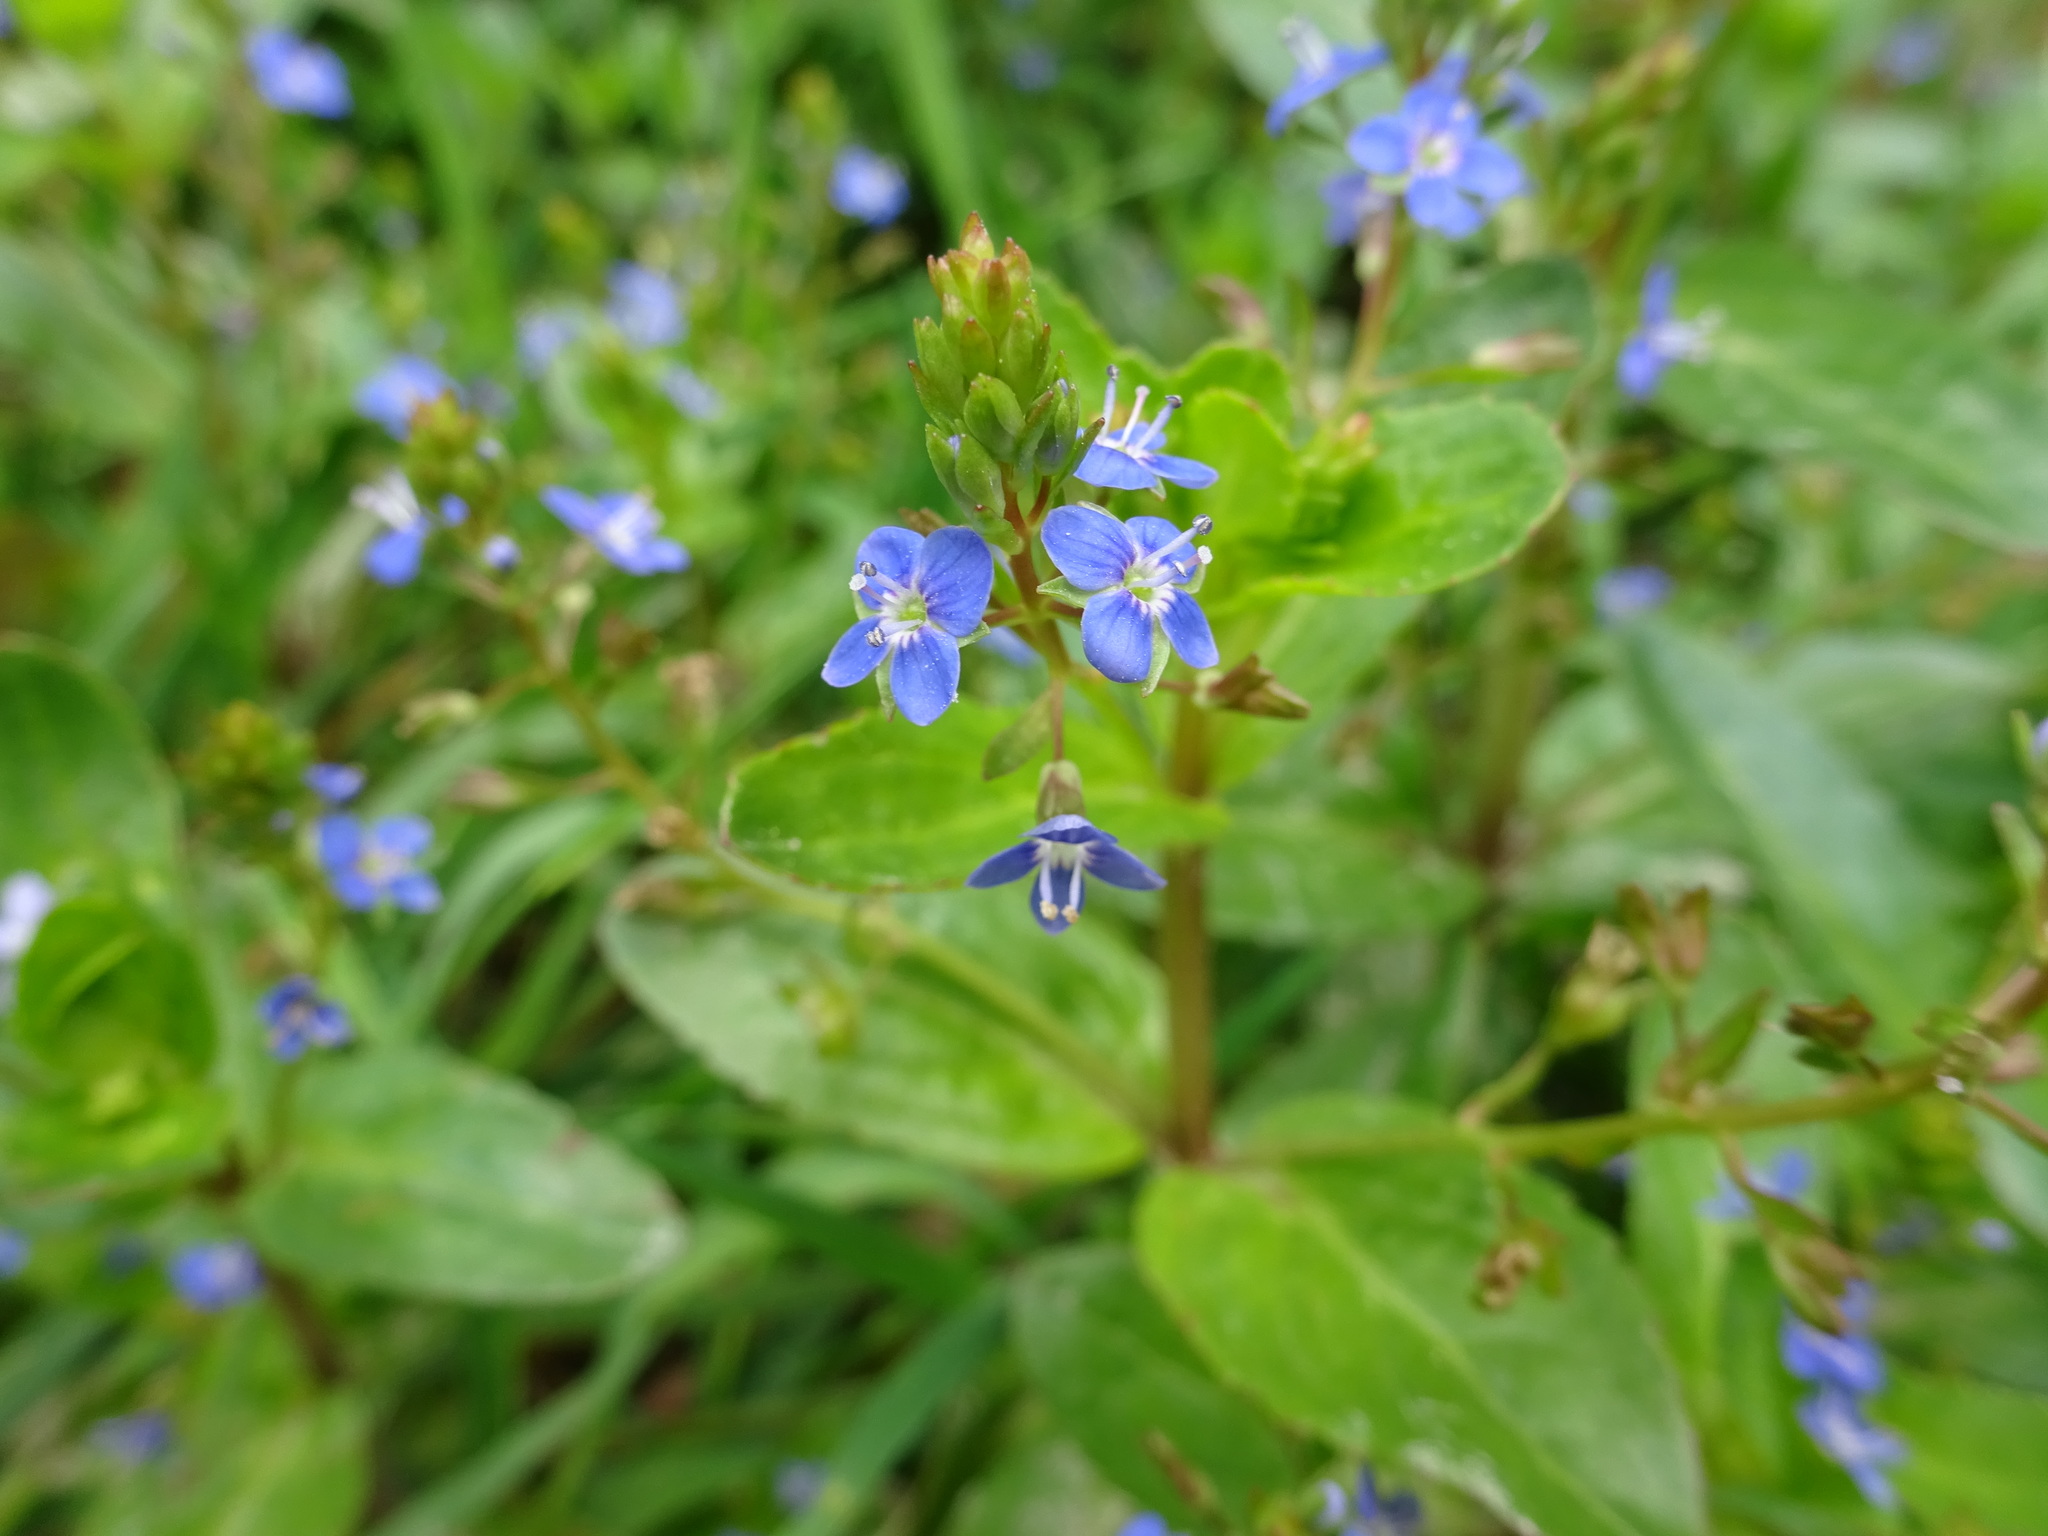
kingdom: Plantae
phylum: Tracheophyta
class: Magnoliopsida
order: Lamiales
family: Plantaginaceae
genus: Veronica
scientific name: Veronica beccabunga
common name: Brooklime
